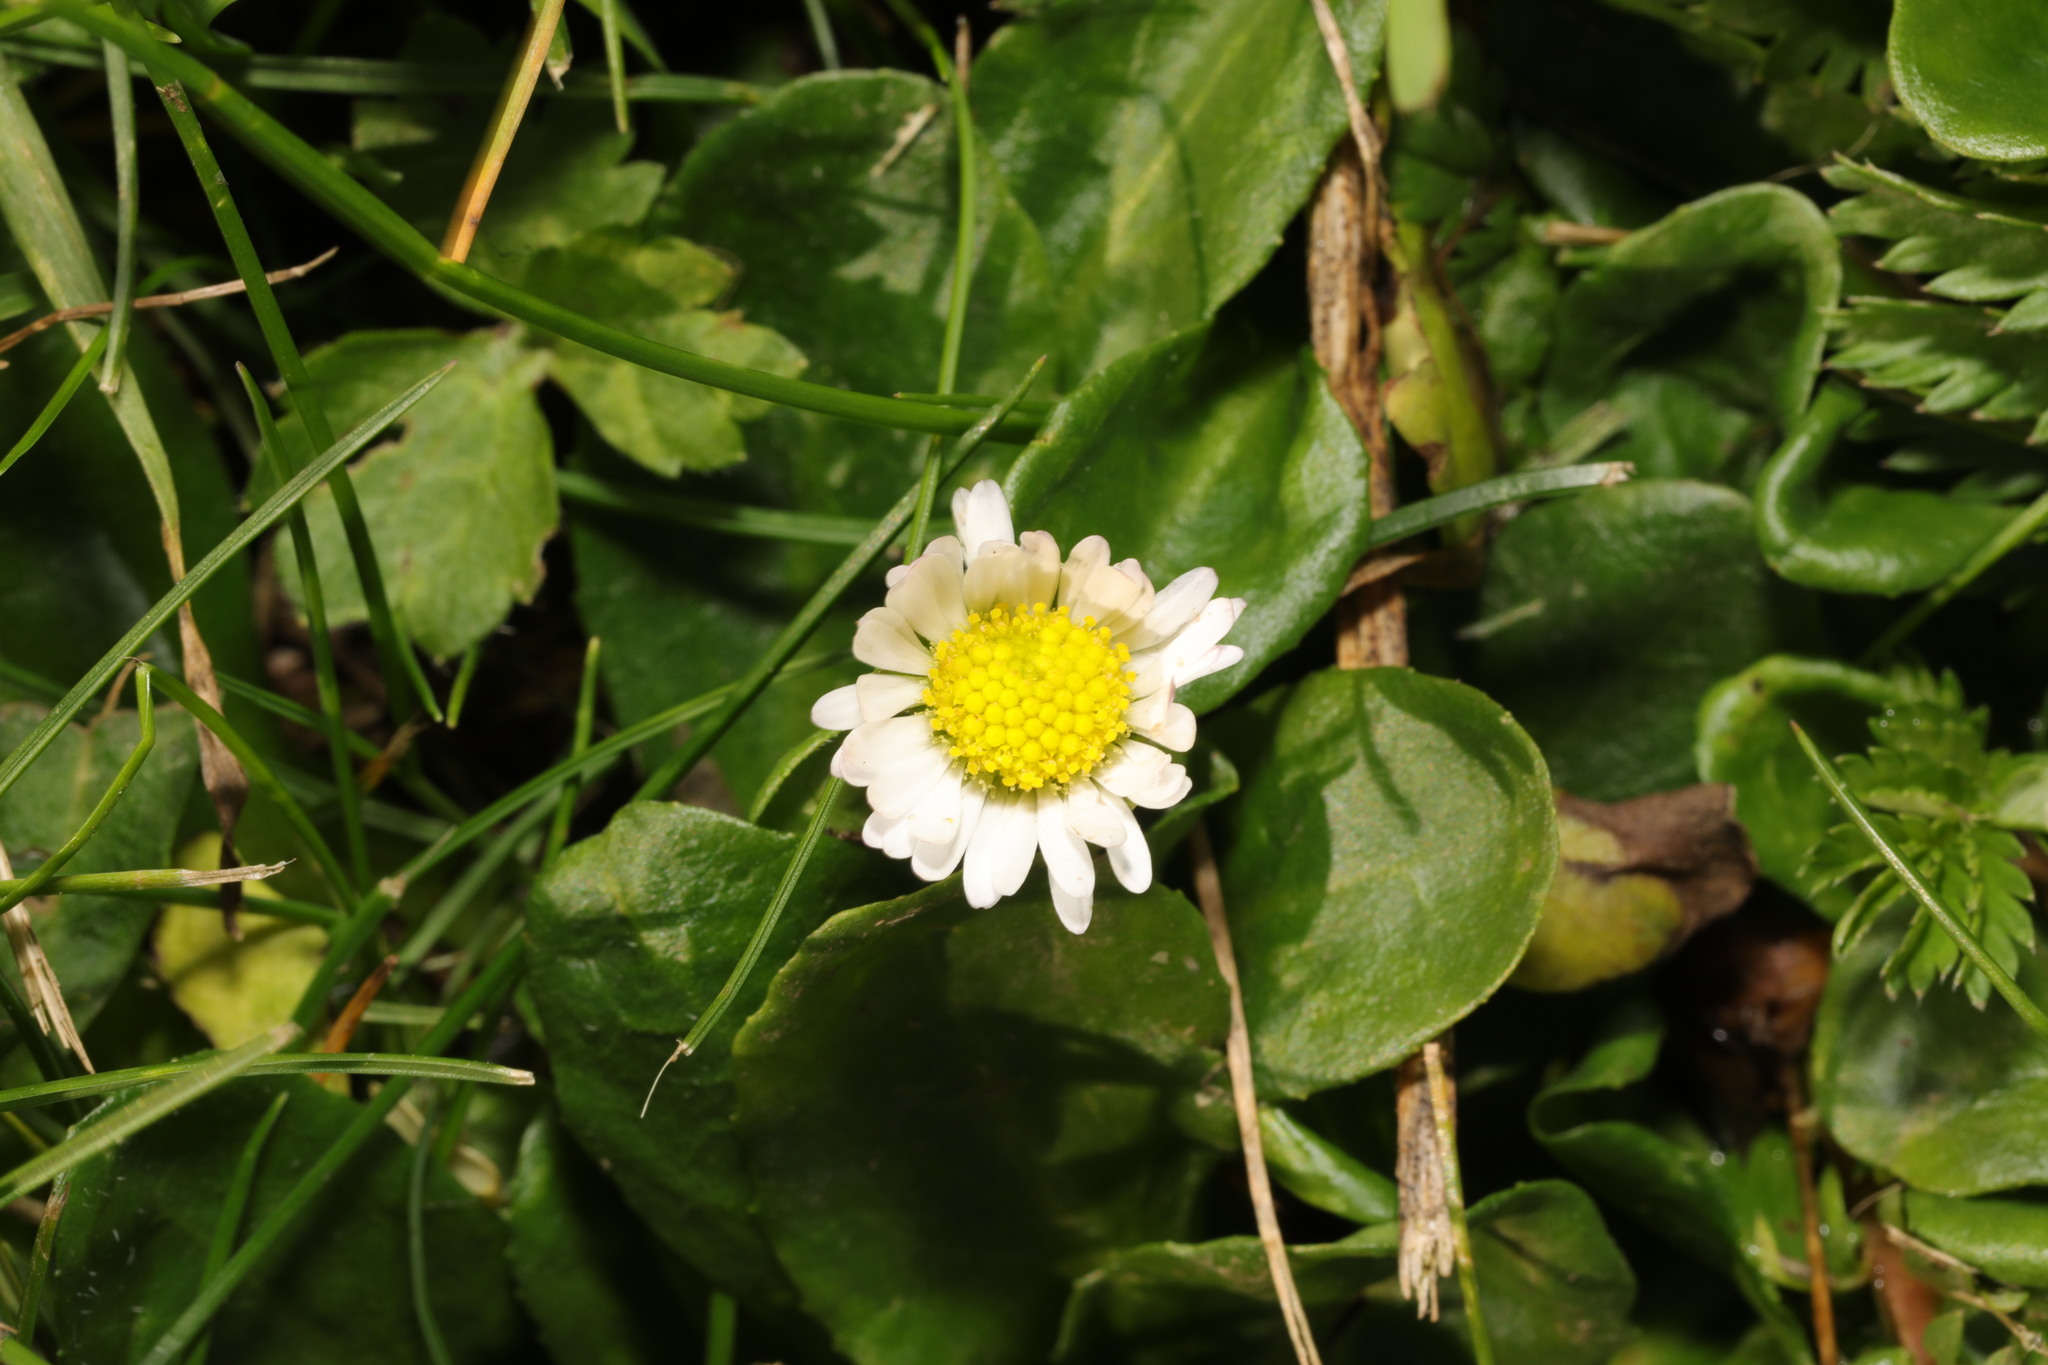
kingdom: Plantae
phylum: Tracheophyta
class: Magnoliopsida
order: Asterales
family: Asteraceae
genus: Bellis
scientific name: Bellis perennis
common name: Lawndaisy
